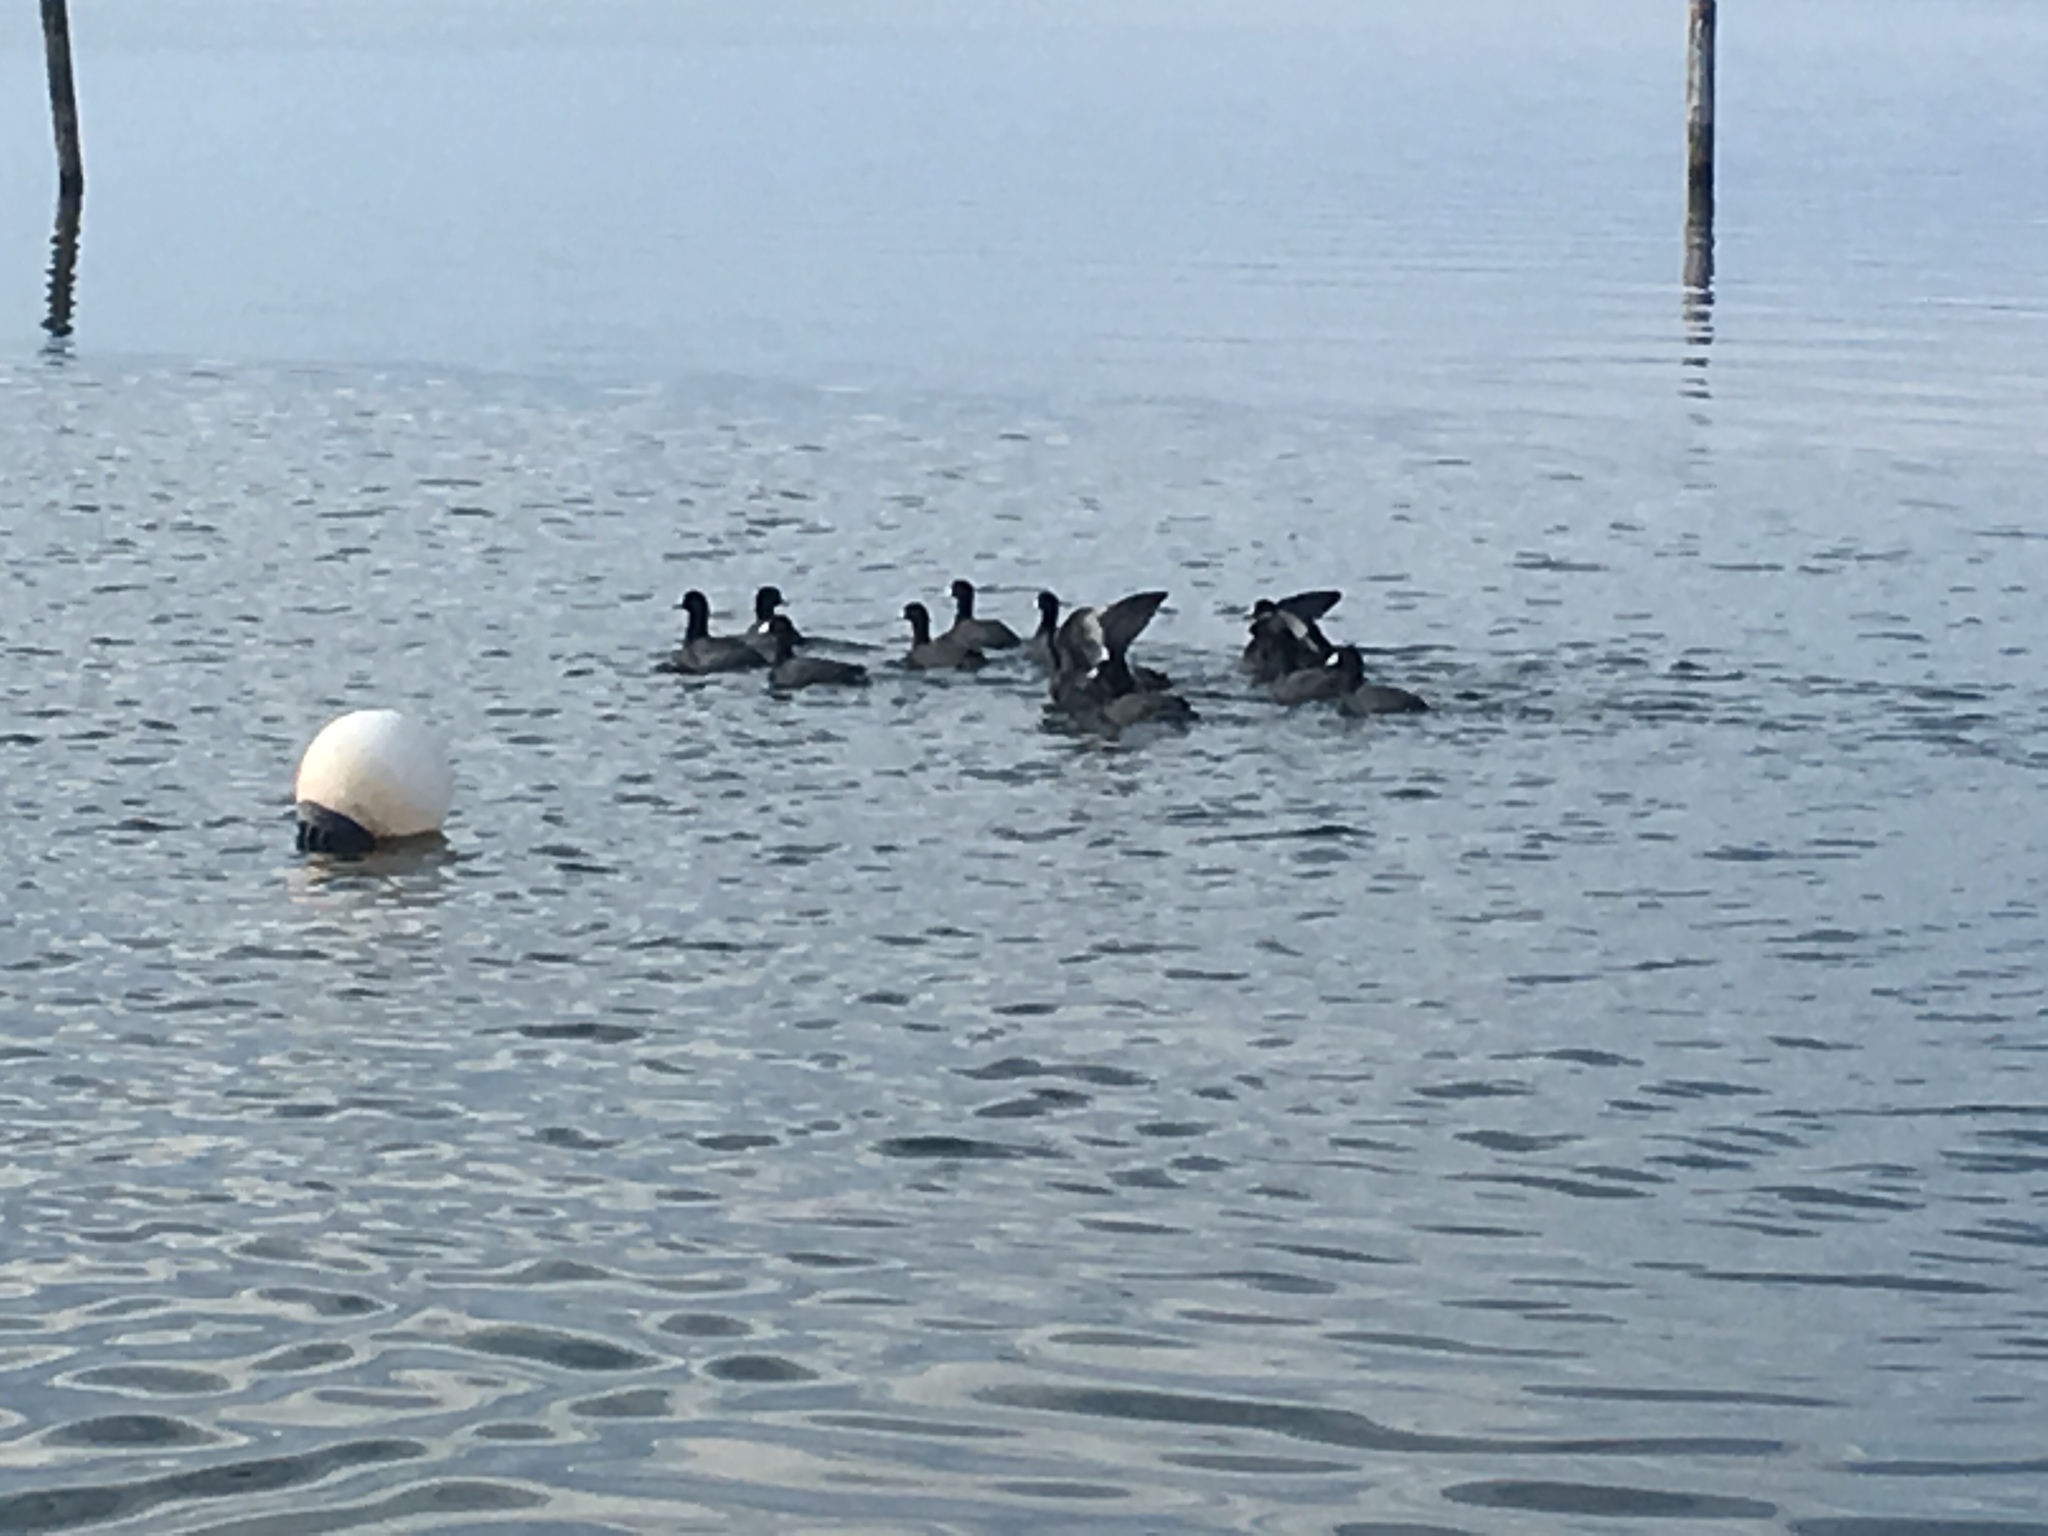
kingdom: Animalia
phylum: Chordata
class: Aves
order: Gruiformes
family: Rallidae
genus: Fulica
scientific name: Fulica americana
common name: American coot
